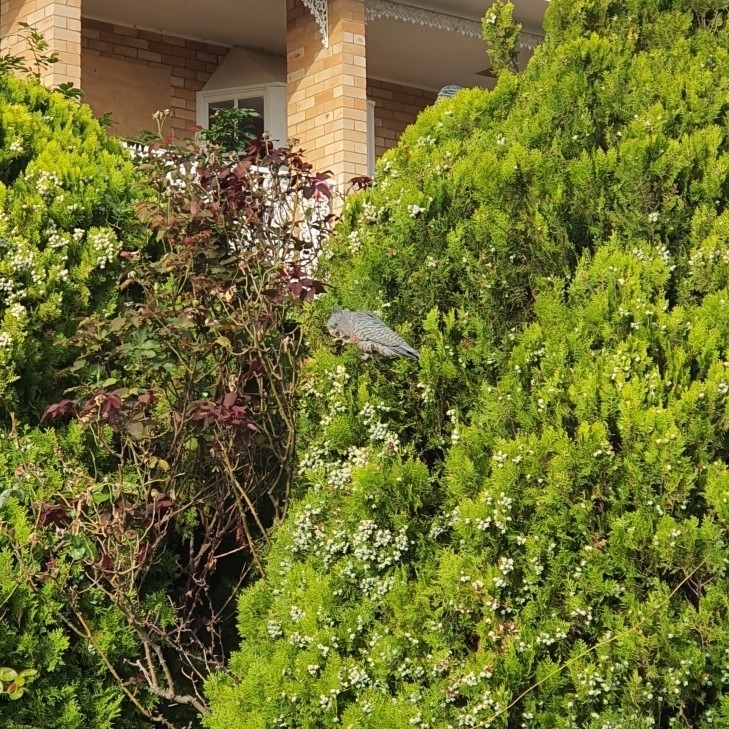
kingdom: Animalia
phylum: Chordata
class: Aves
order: Psittaciformes
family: Psittacidae
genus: Callocephalon
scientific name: Callocephalon fimbriatum
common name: Gang-gang cockatoo
